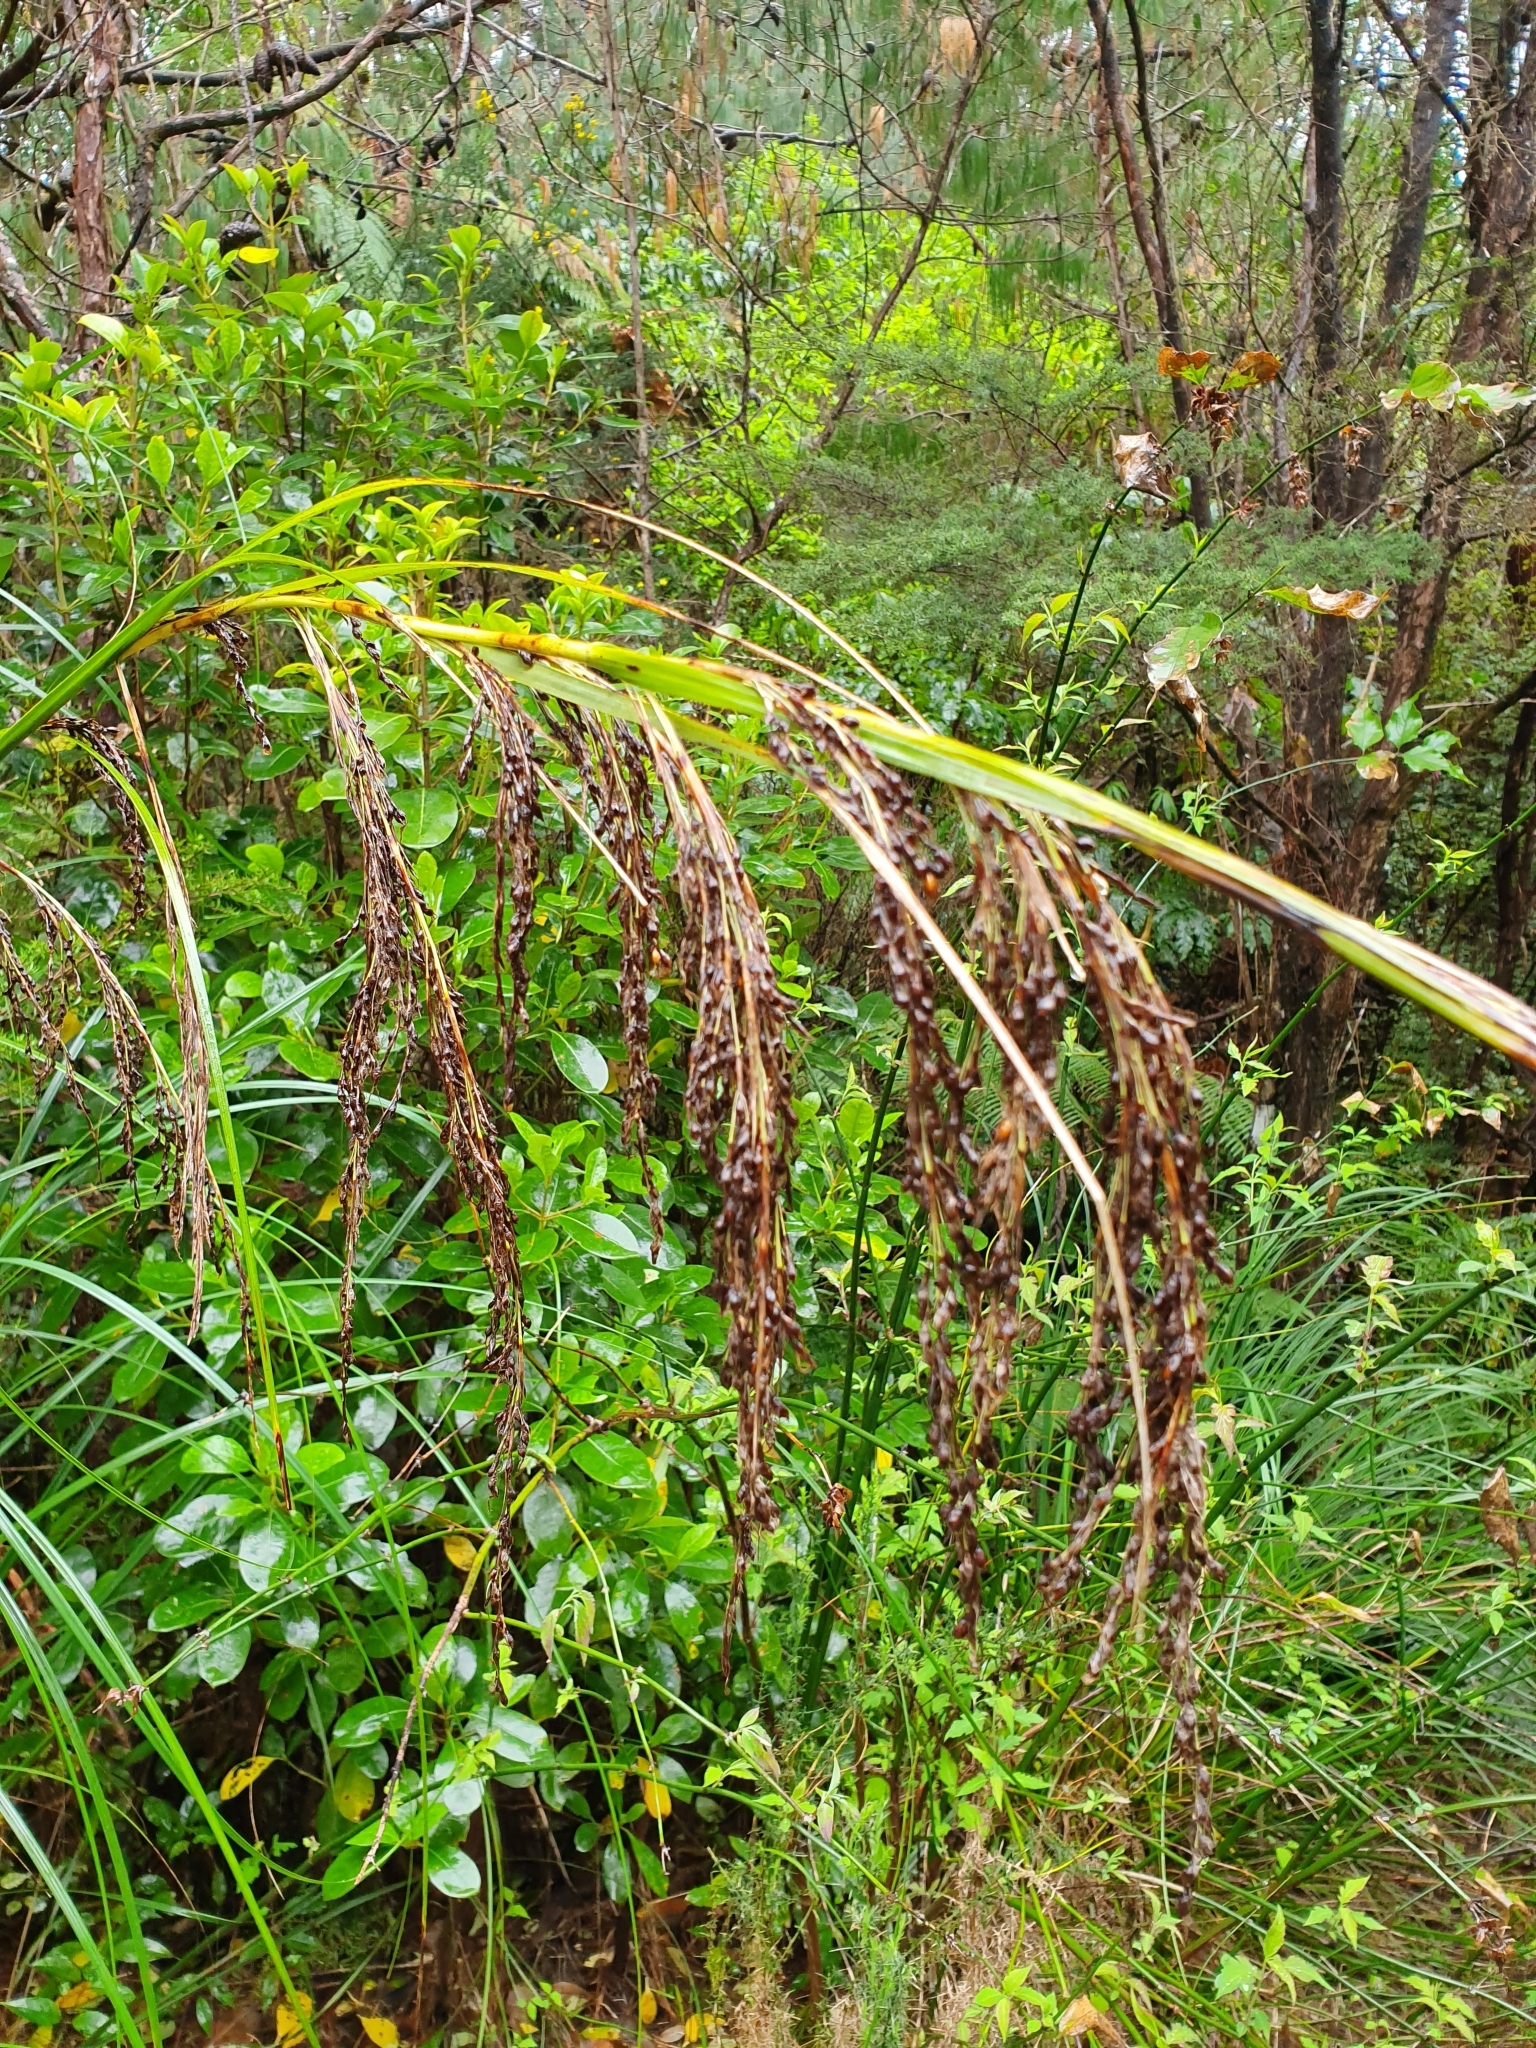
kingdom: Plantae
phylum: Tracheophyta
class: Liliopsida
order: Poales
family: Cyperaceae
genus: Gahnia
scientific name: Gahnia setifolia
